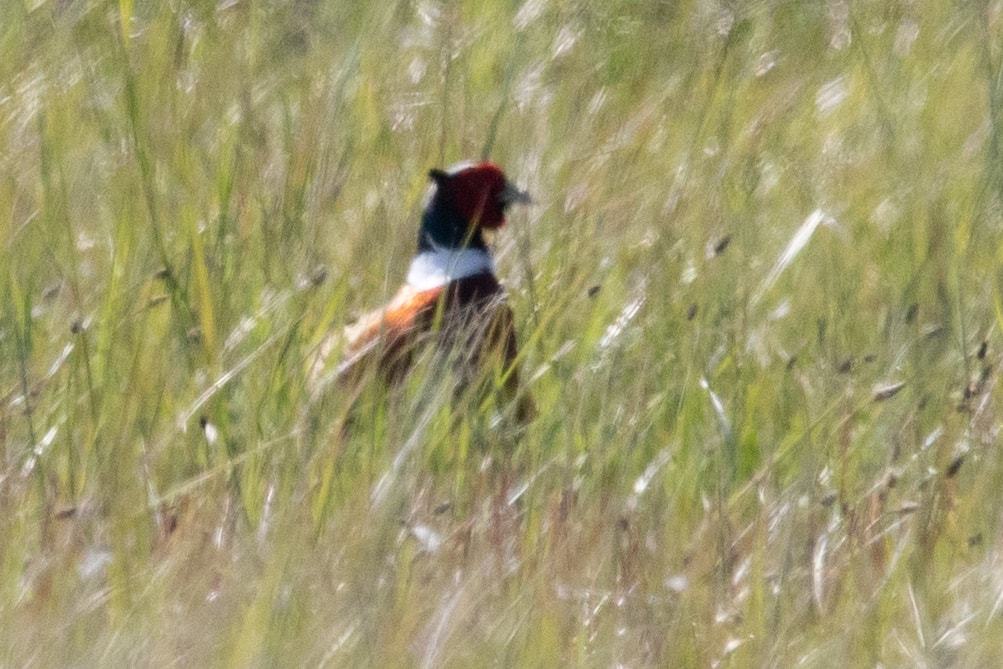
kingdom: Animalia
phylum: Chordata
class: Aves
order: Galliformes
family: Phasianidae
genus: Phasianus
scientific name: Phasianus colchicus
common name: Common pheasant
